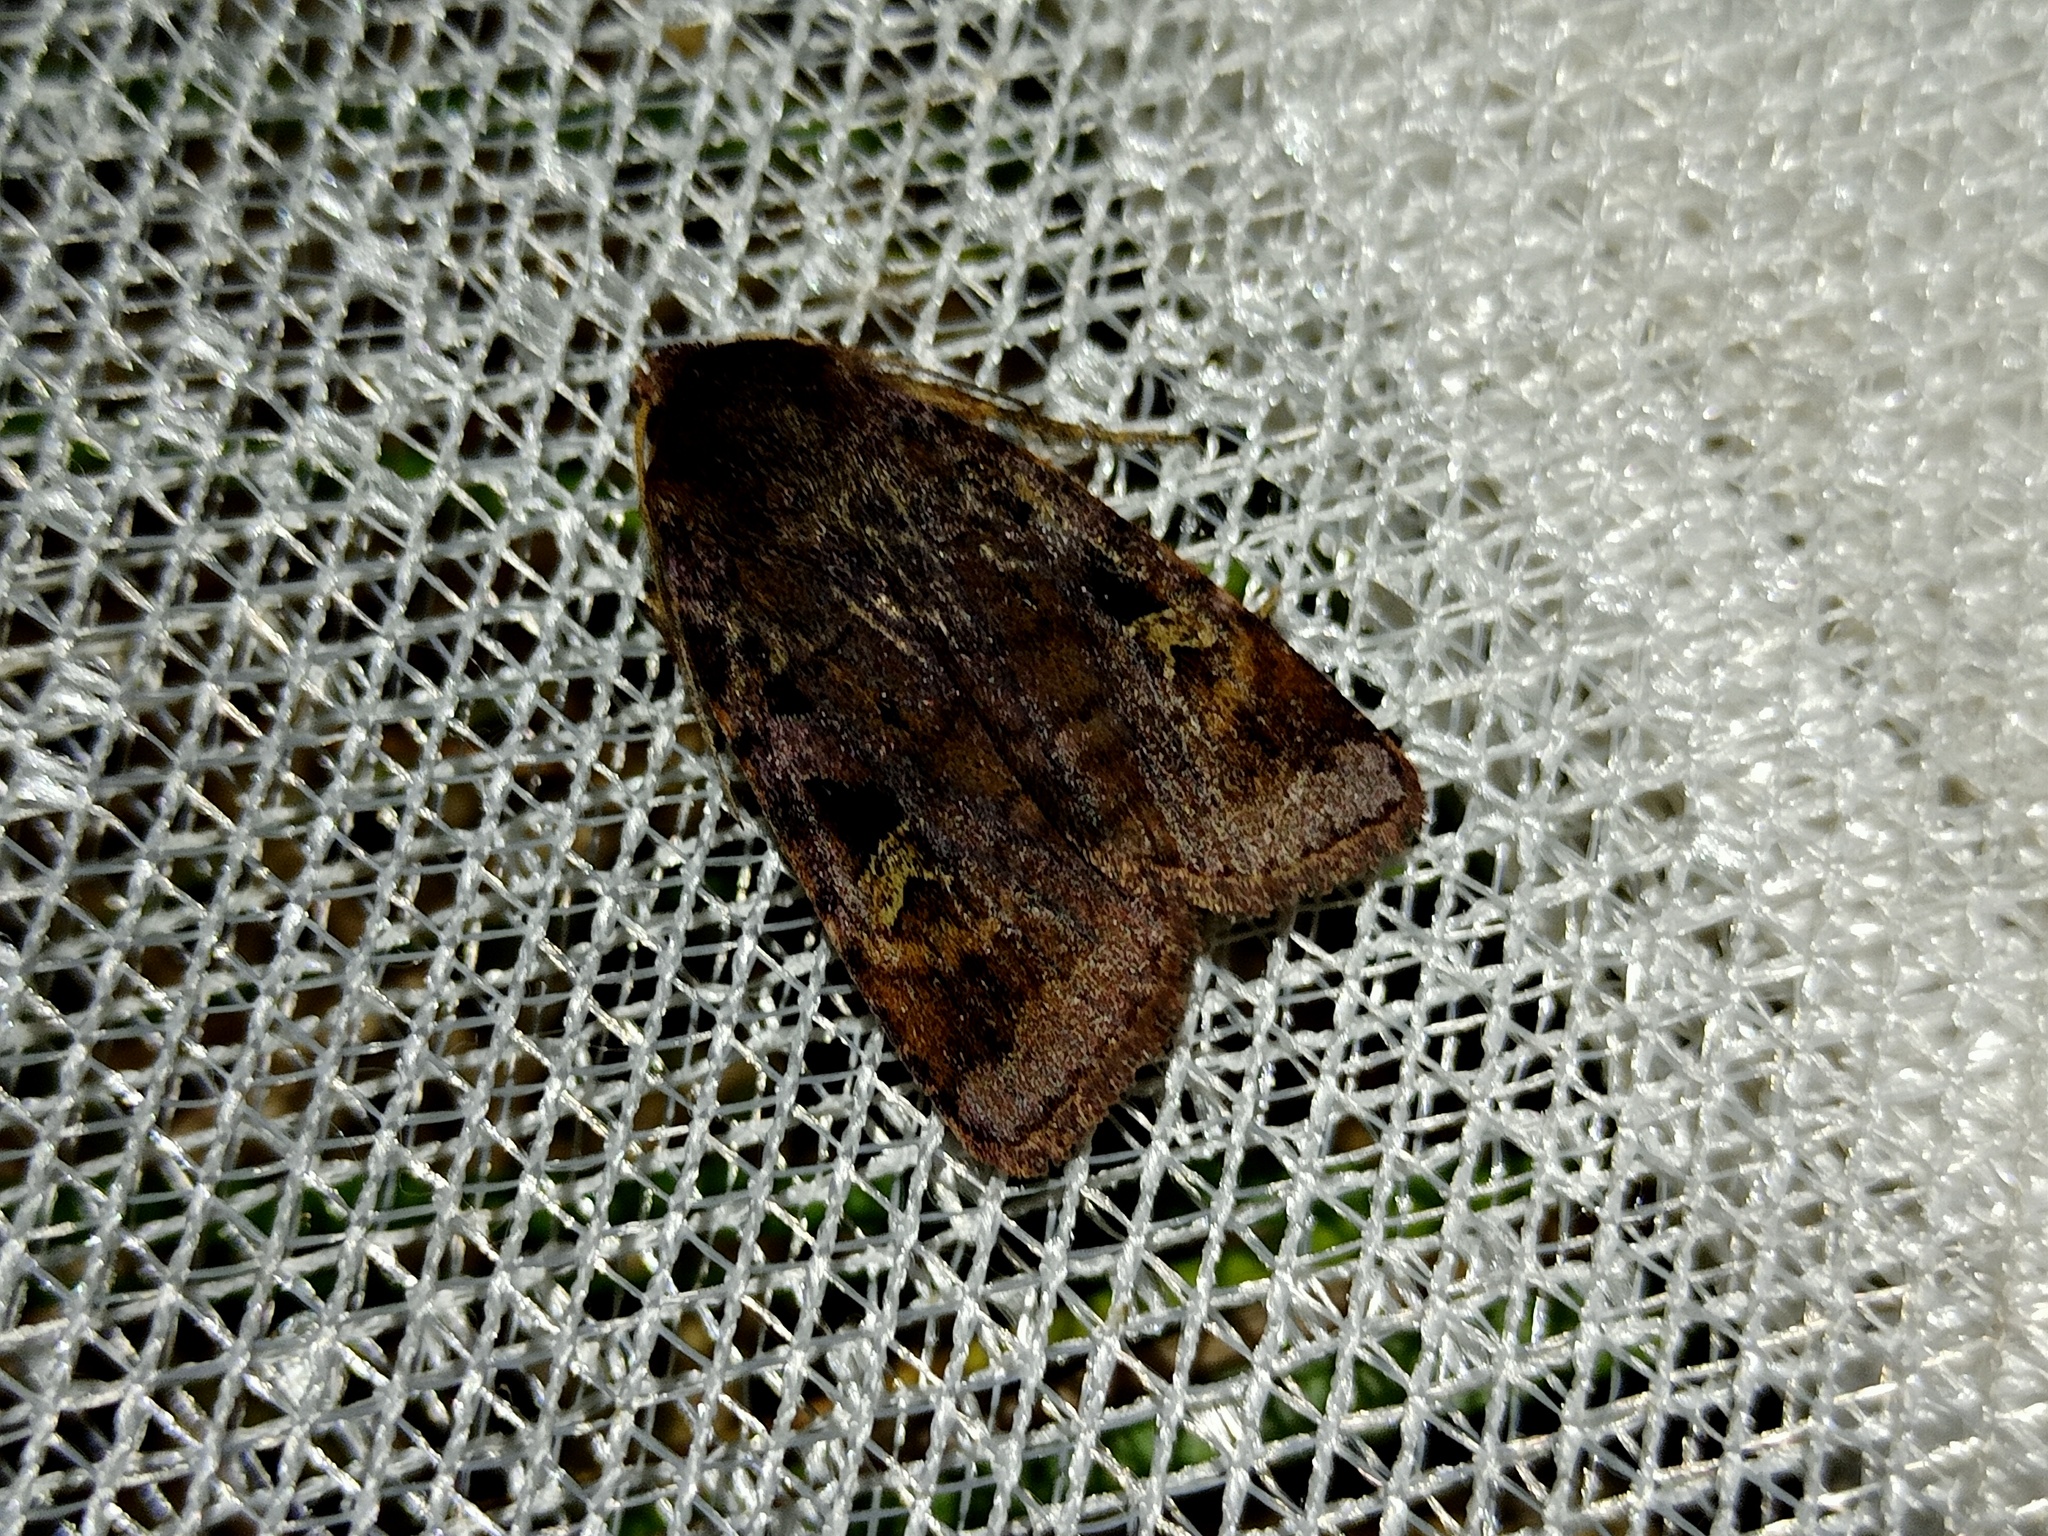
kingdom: Animalia
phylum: Arthropoda
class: Insecta
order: Lepidoptera
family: Noctuidae
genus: Diarsia
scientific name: Diarsia brunnea
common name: Purple clay
